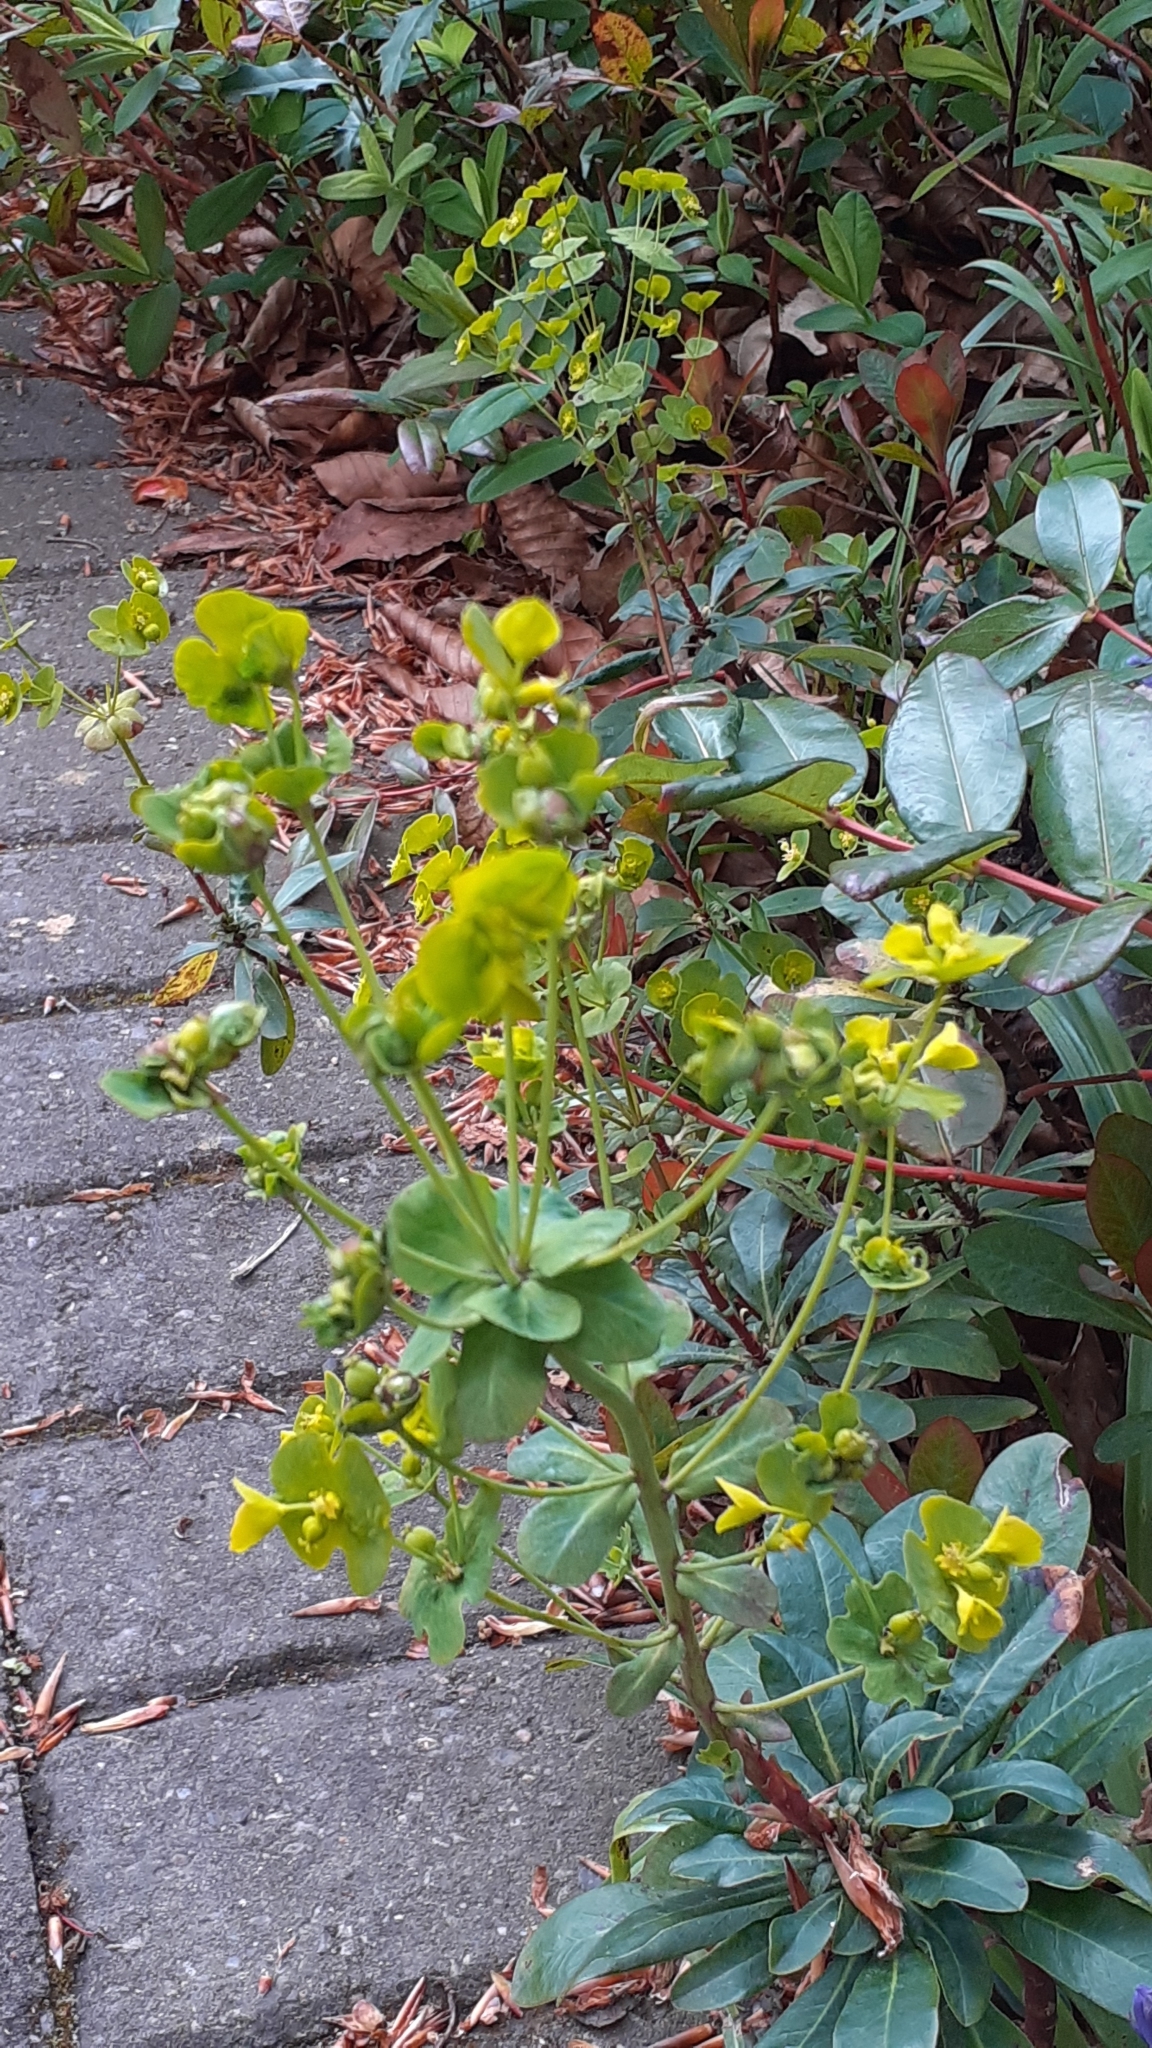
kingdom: Plantae
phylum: Tracheophyta
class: Magnoliopsida
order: Malpighiales
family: Euphorbiaceae
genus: Euphorbia
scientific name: Euphorbia amygdaloides
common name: Wood spurge
